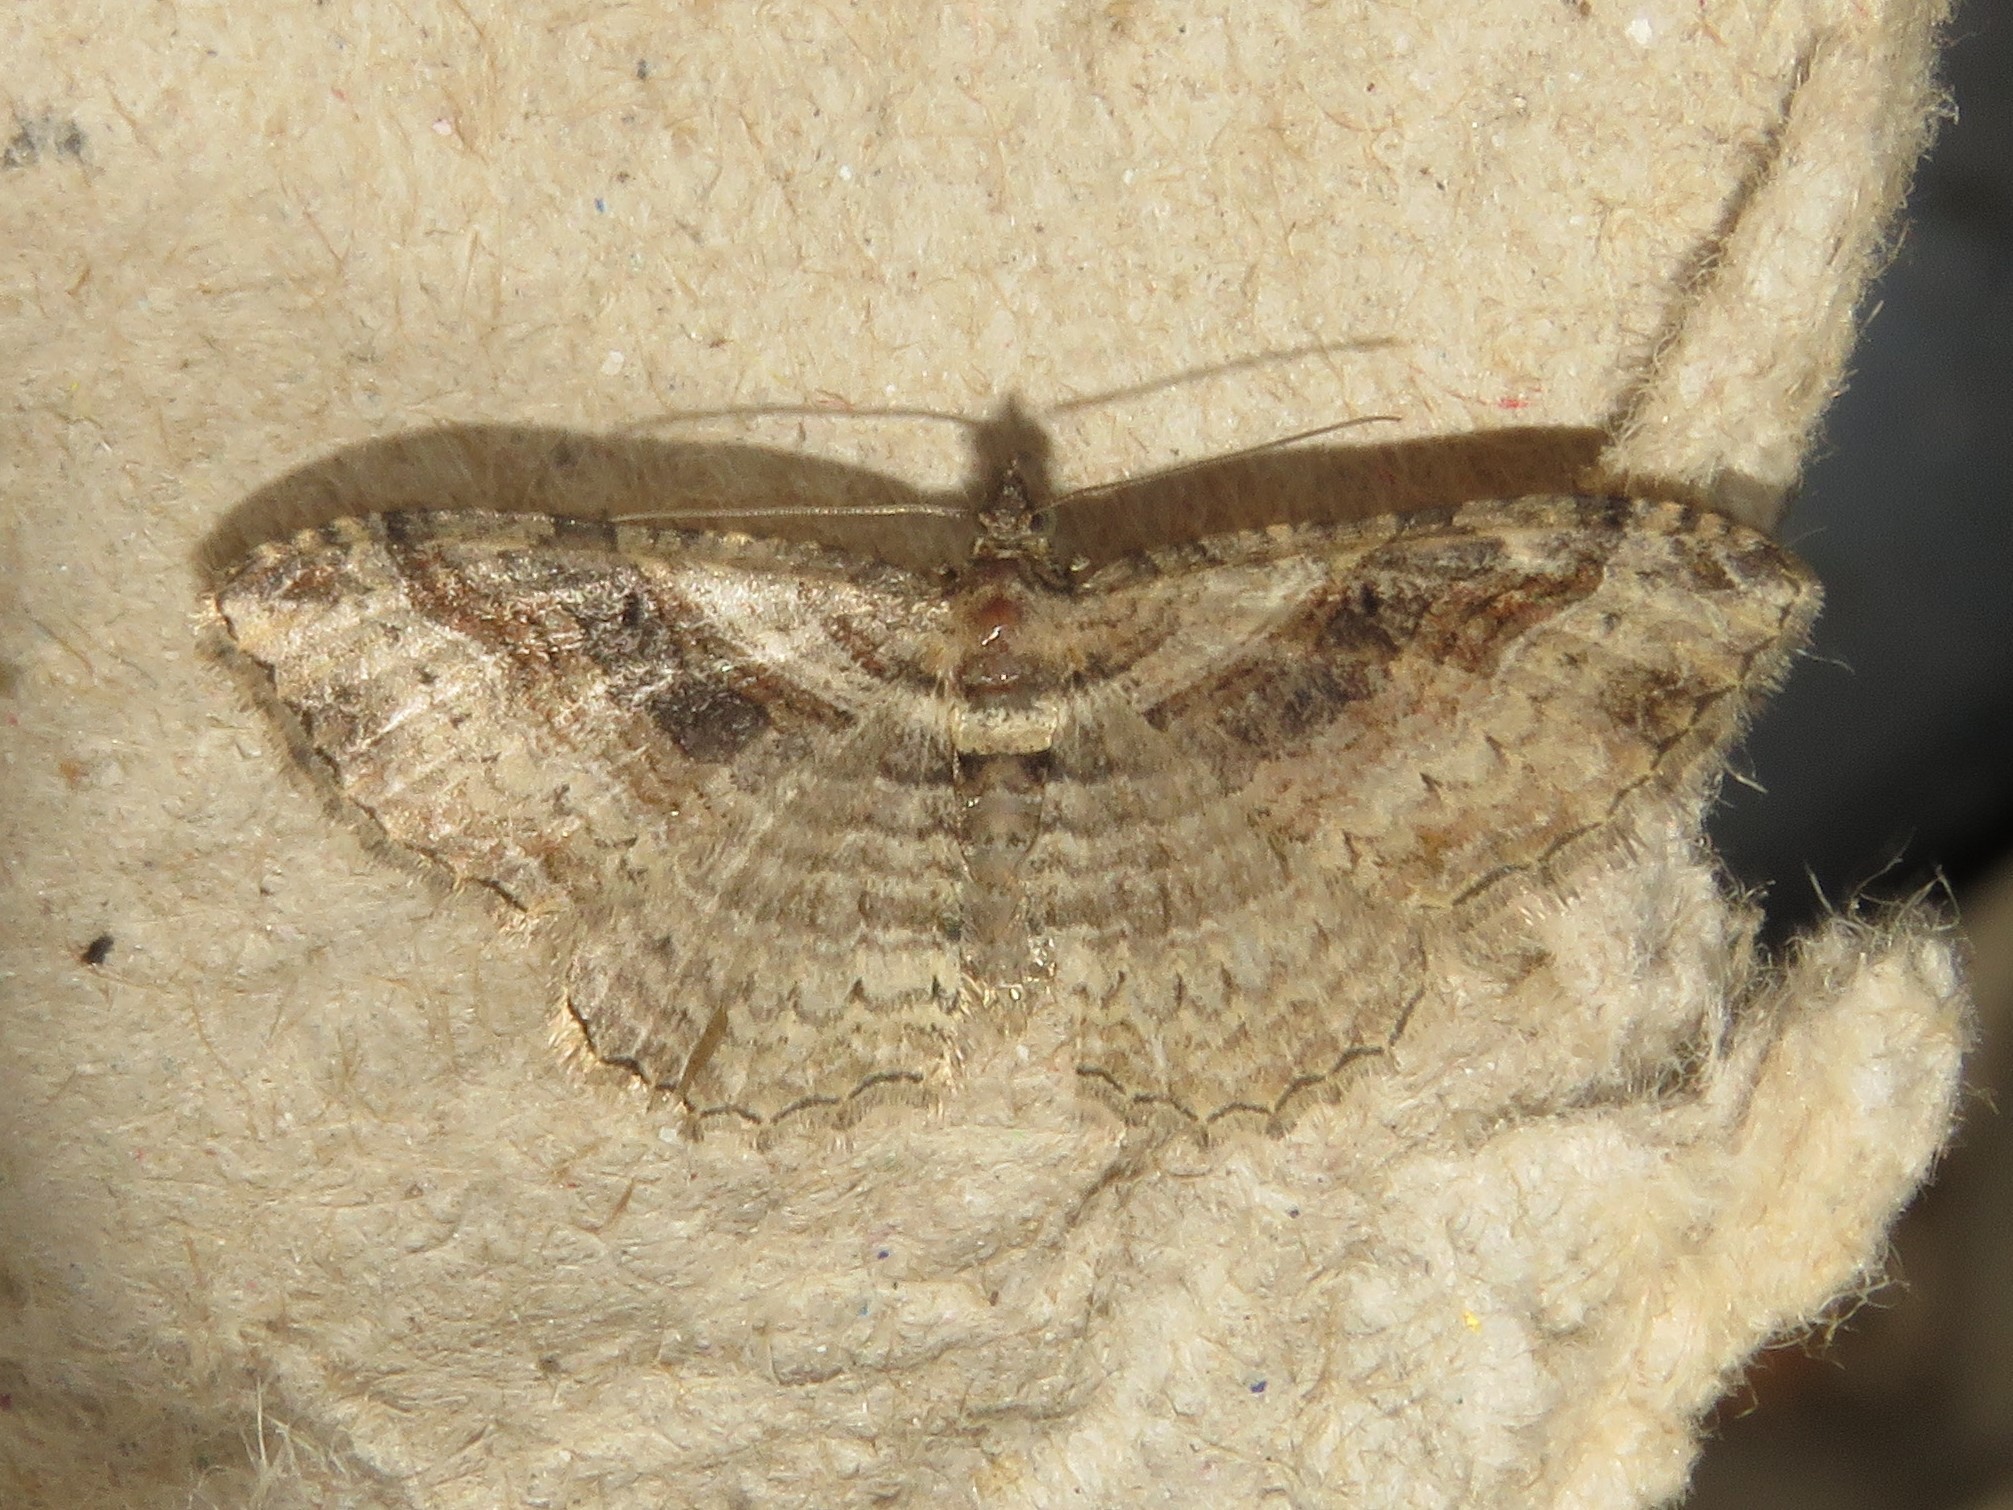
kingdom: Animalia
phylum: Arthropoda
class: Insecta
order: Lepidoptera
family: Geometridae
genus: Costaconvexa
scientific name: Costaconvexa centrostrigaria
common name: Bent-line carpet
